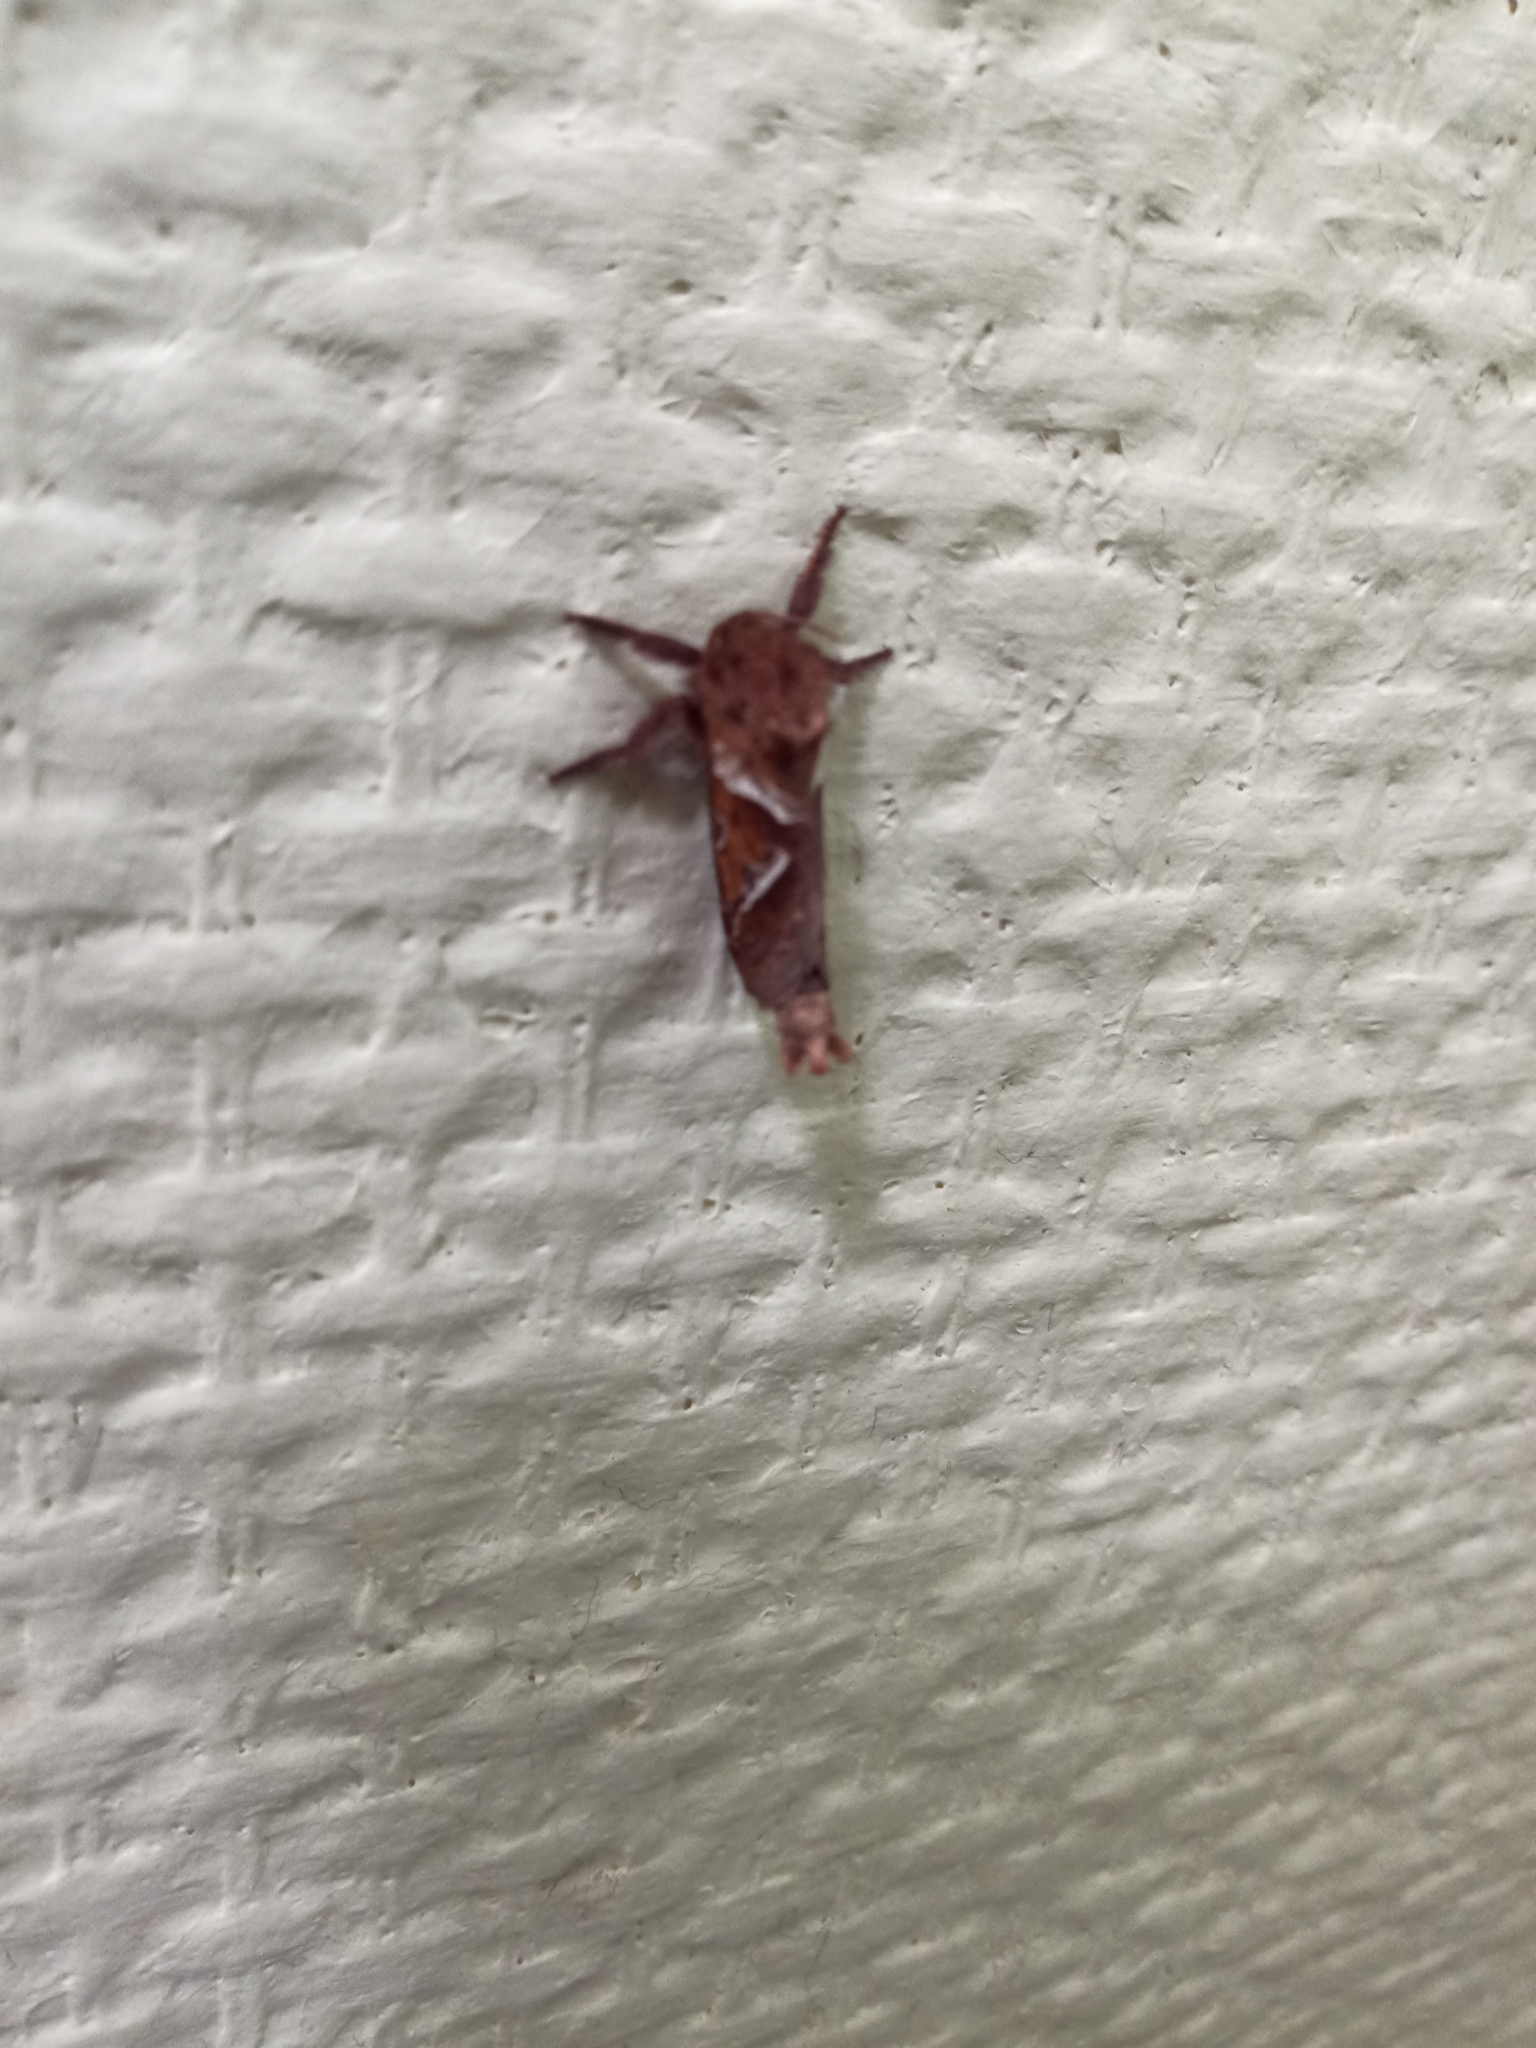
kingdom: Animalia
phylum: Arthropoda
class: Insecta
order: Lepidoptera
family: Hepialidae
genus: Triodia
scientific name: Triodia sylvina
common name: Orange swift
